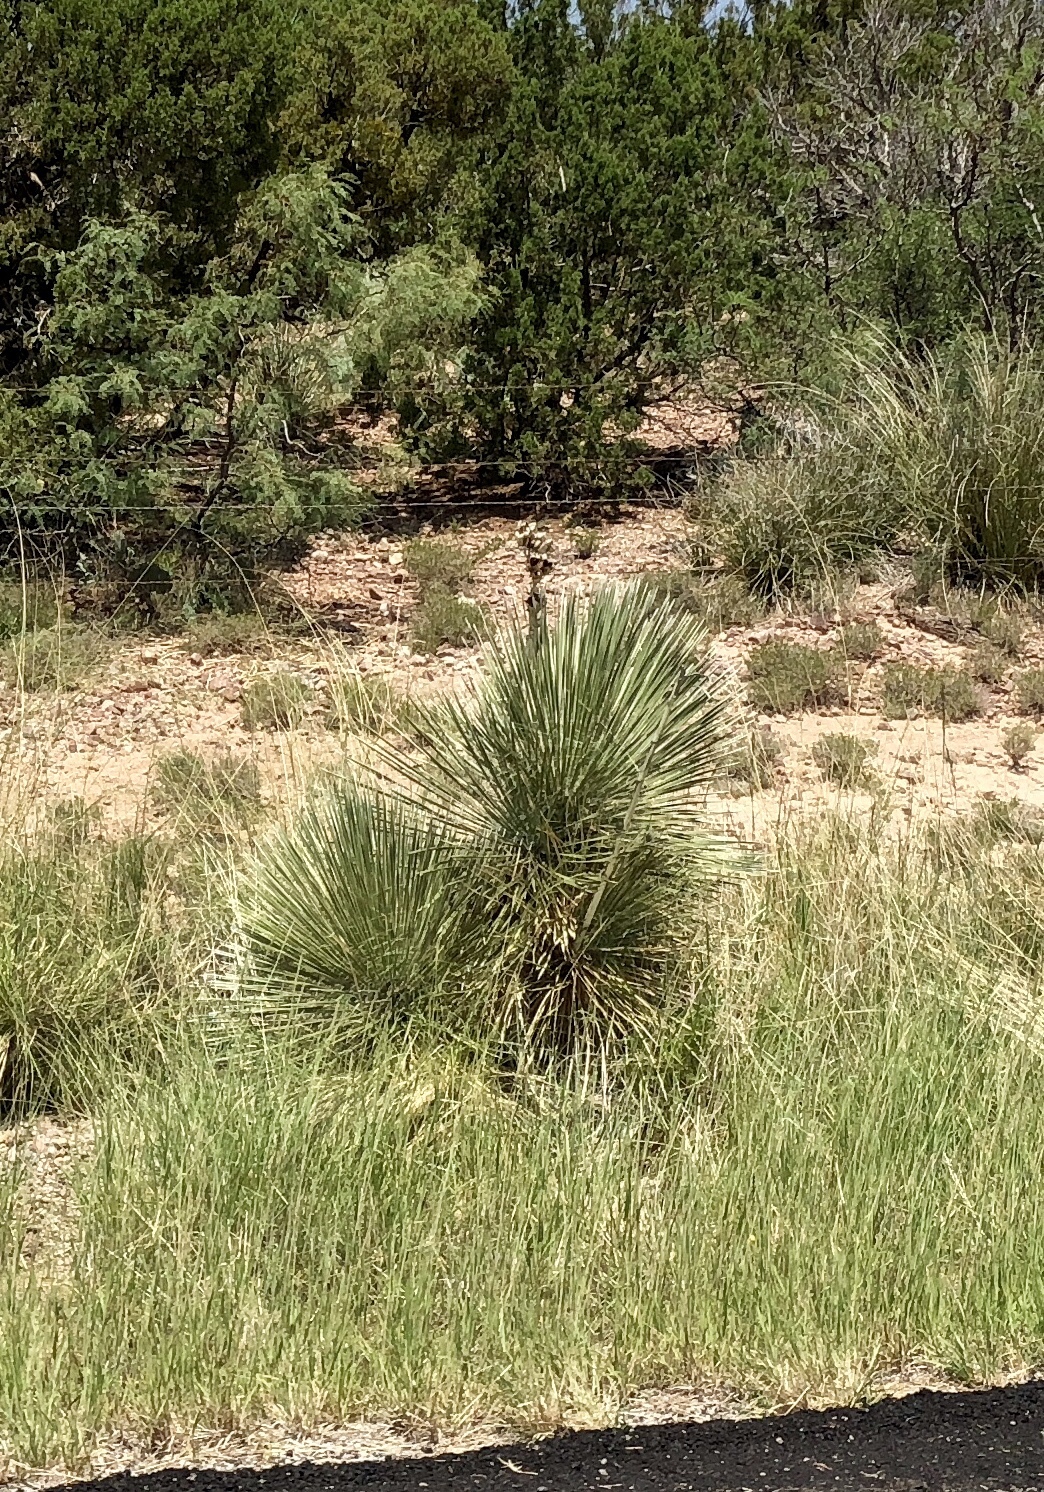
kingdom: Plantae
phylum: Tracheophyta
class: Liliopsida
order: Asparagales
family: Asparagaceae
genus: Yucca
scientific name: Yucca elata
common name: Palmella
